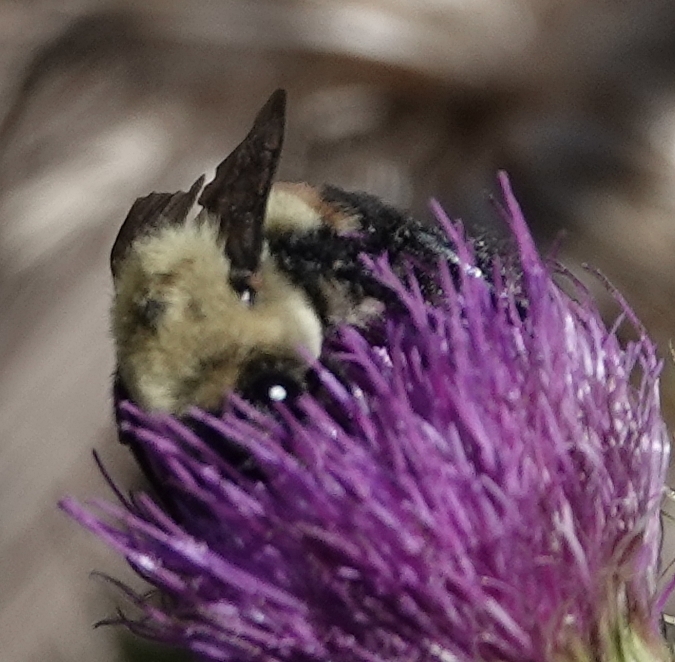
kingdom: Animalia
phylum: Arthropoda
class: Insecta
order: Hymenoptera
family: Apidae
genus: Bombus
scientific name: Bombus griseocollis
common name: Brown-belted bumble bee
